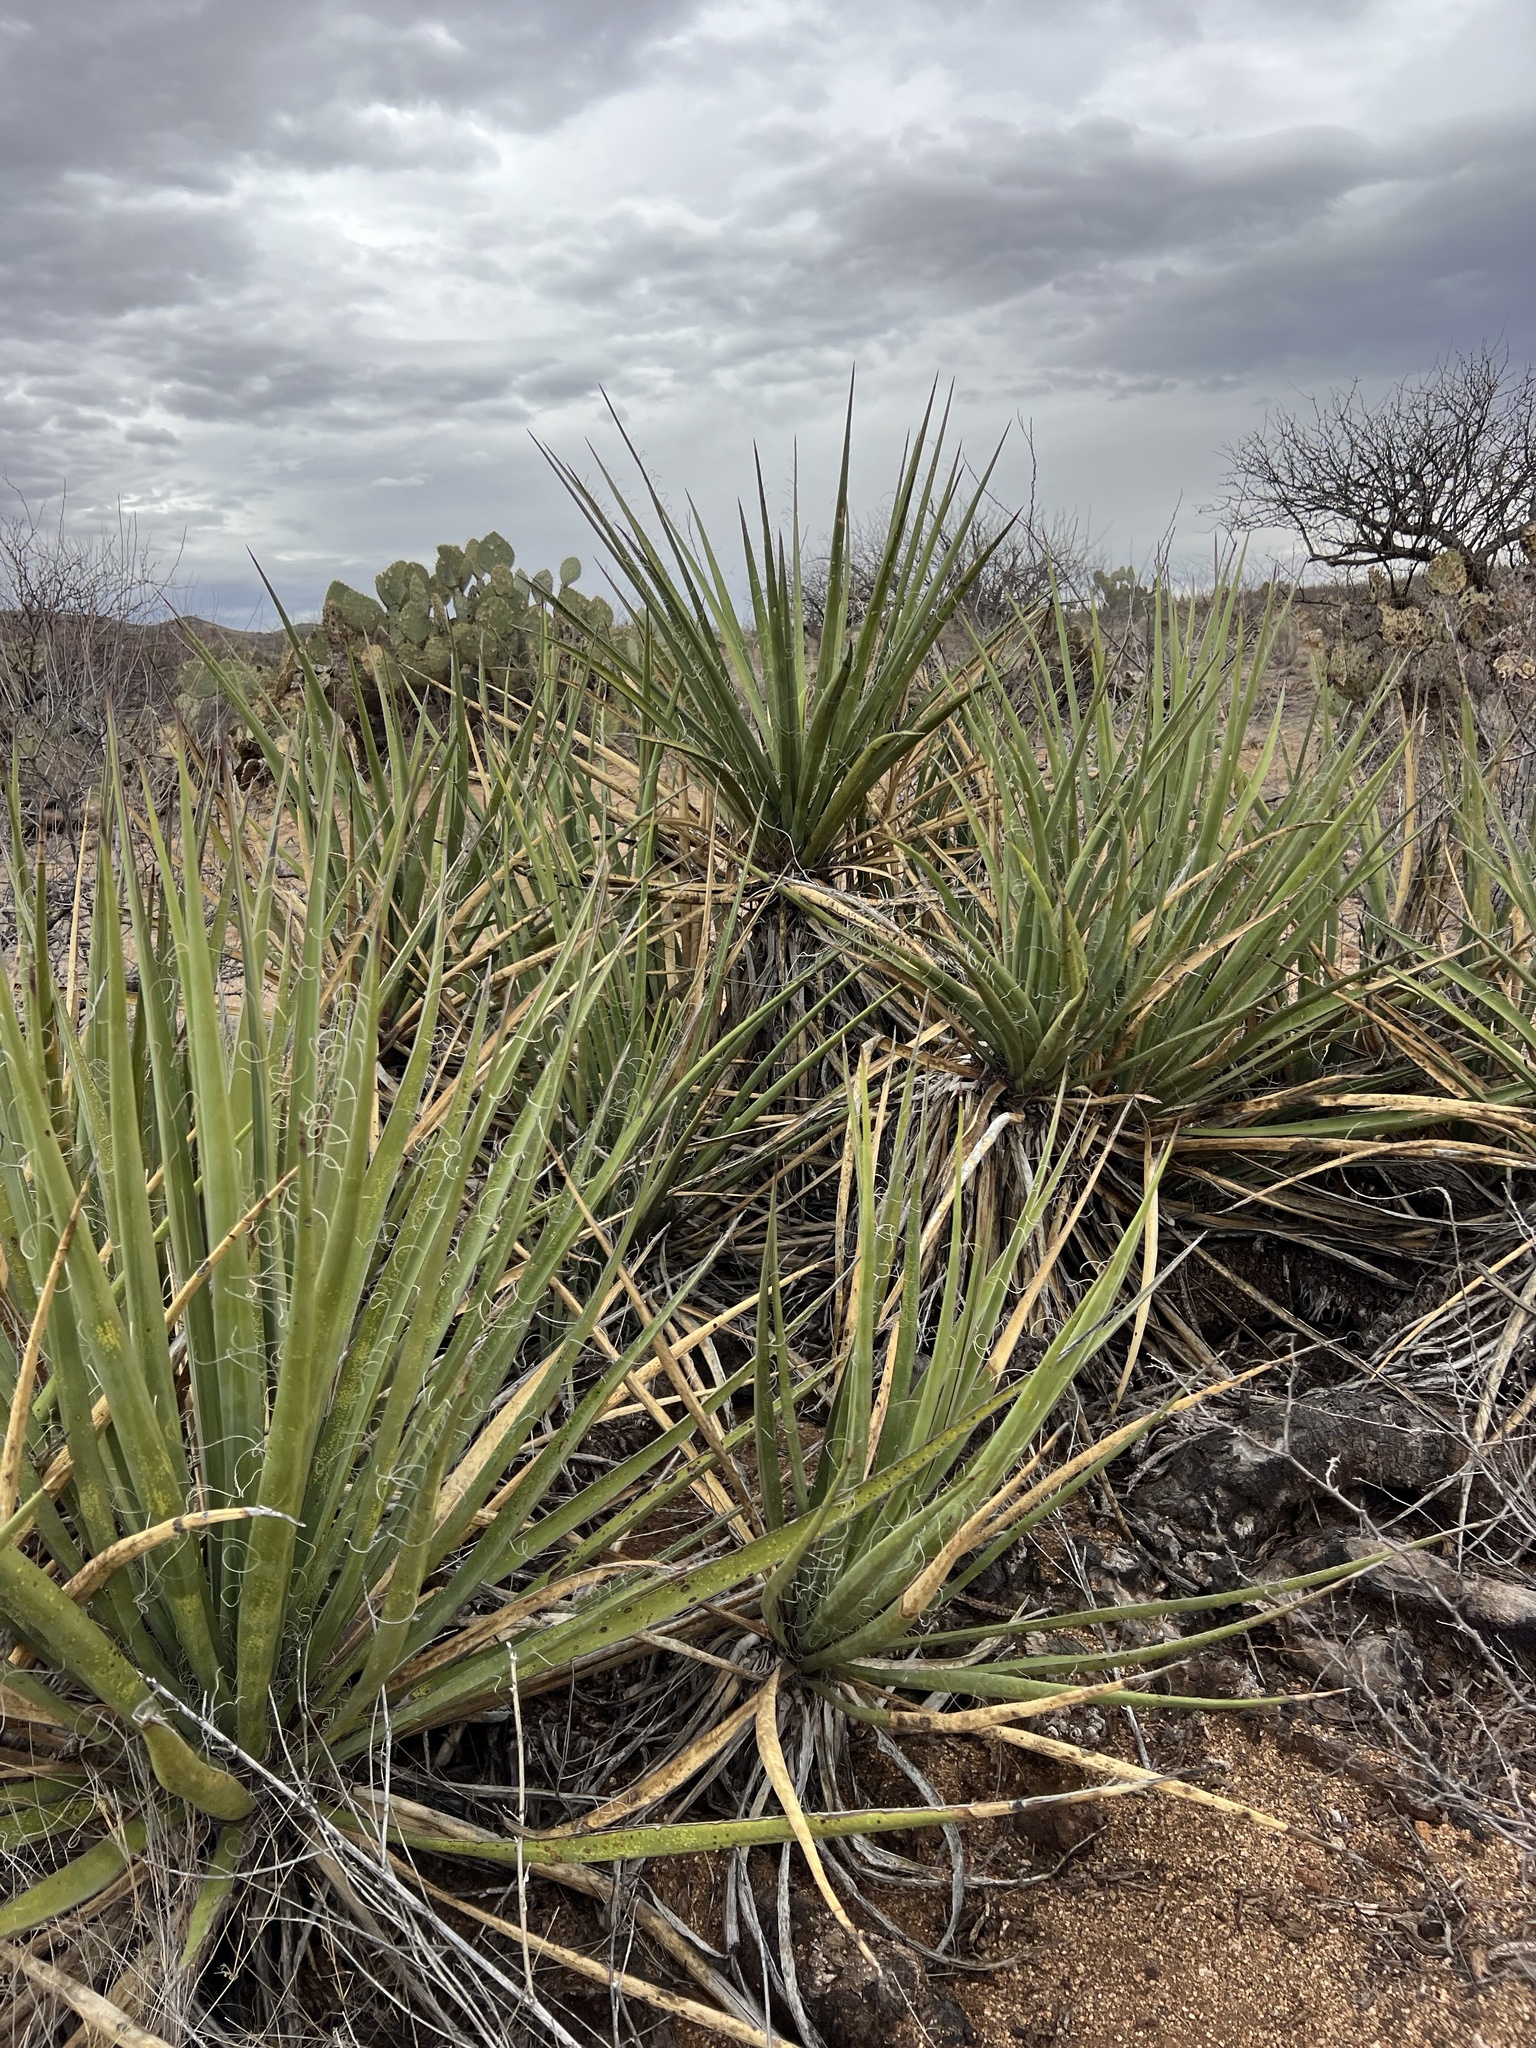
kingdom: Plantae
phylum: Tracheophyta
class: Liliopsida
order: Asparagales
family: Asparagaceae
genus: Yucca
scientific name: Yucca baccata
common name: Banana yucca
